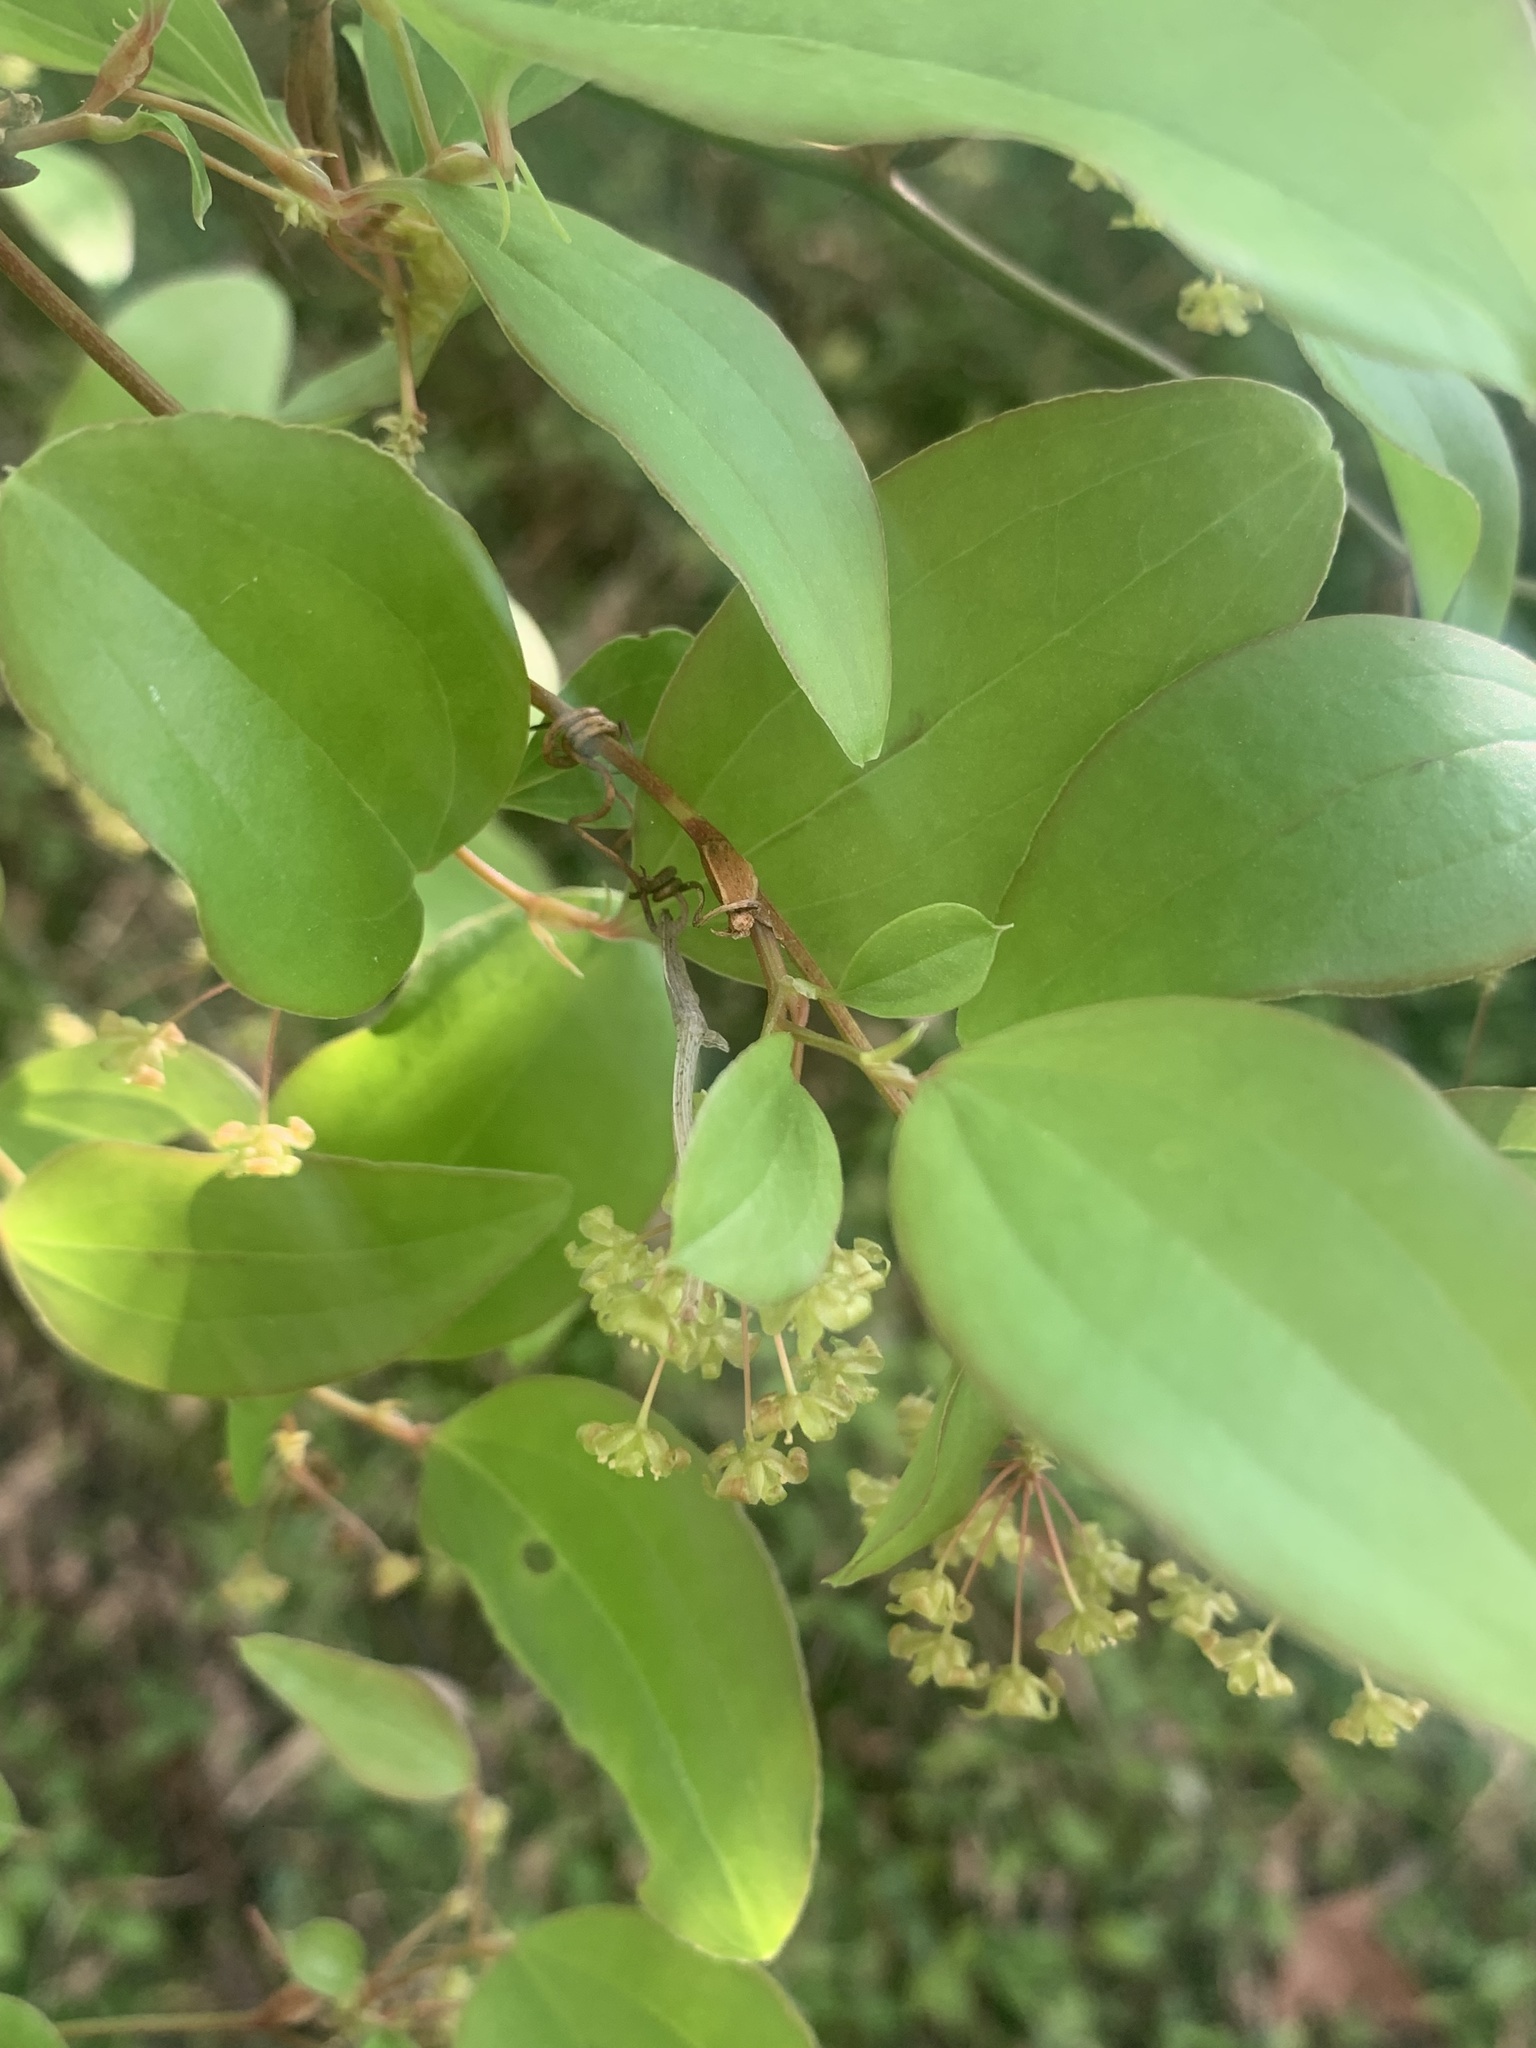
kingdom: Plantae
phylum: Tracheophyta
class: Liliopsida
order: Liliales
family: Smilacaceae
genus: Smilax
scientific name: Smilax china
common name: Chinaroot
